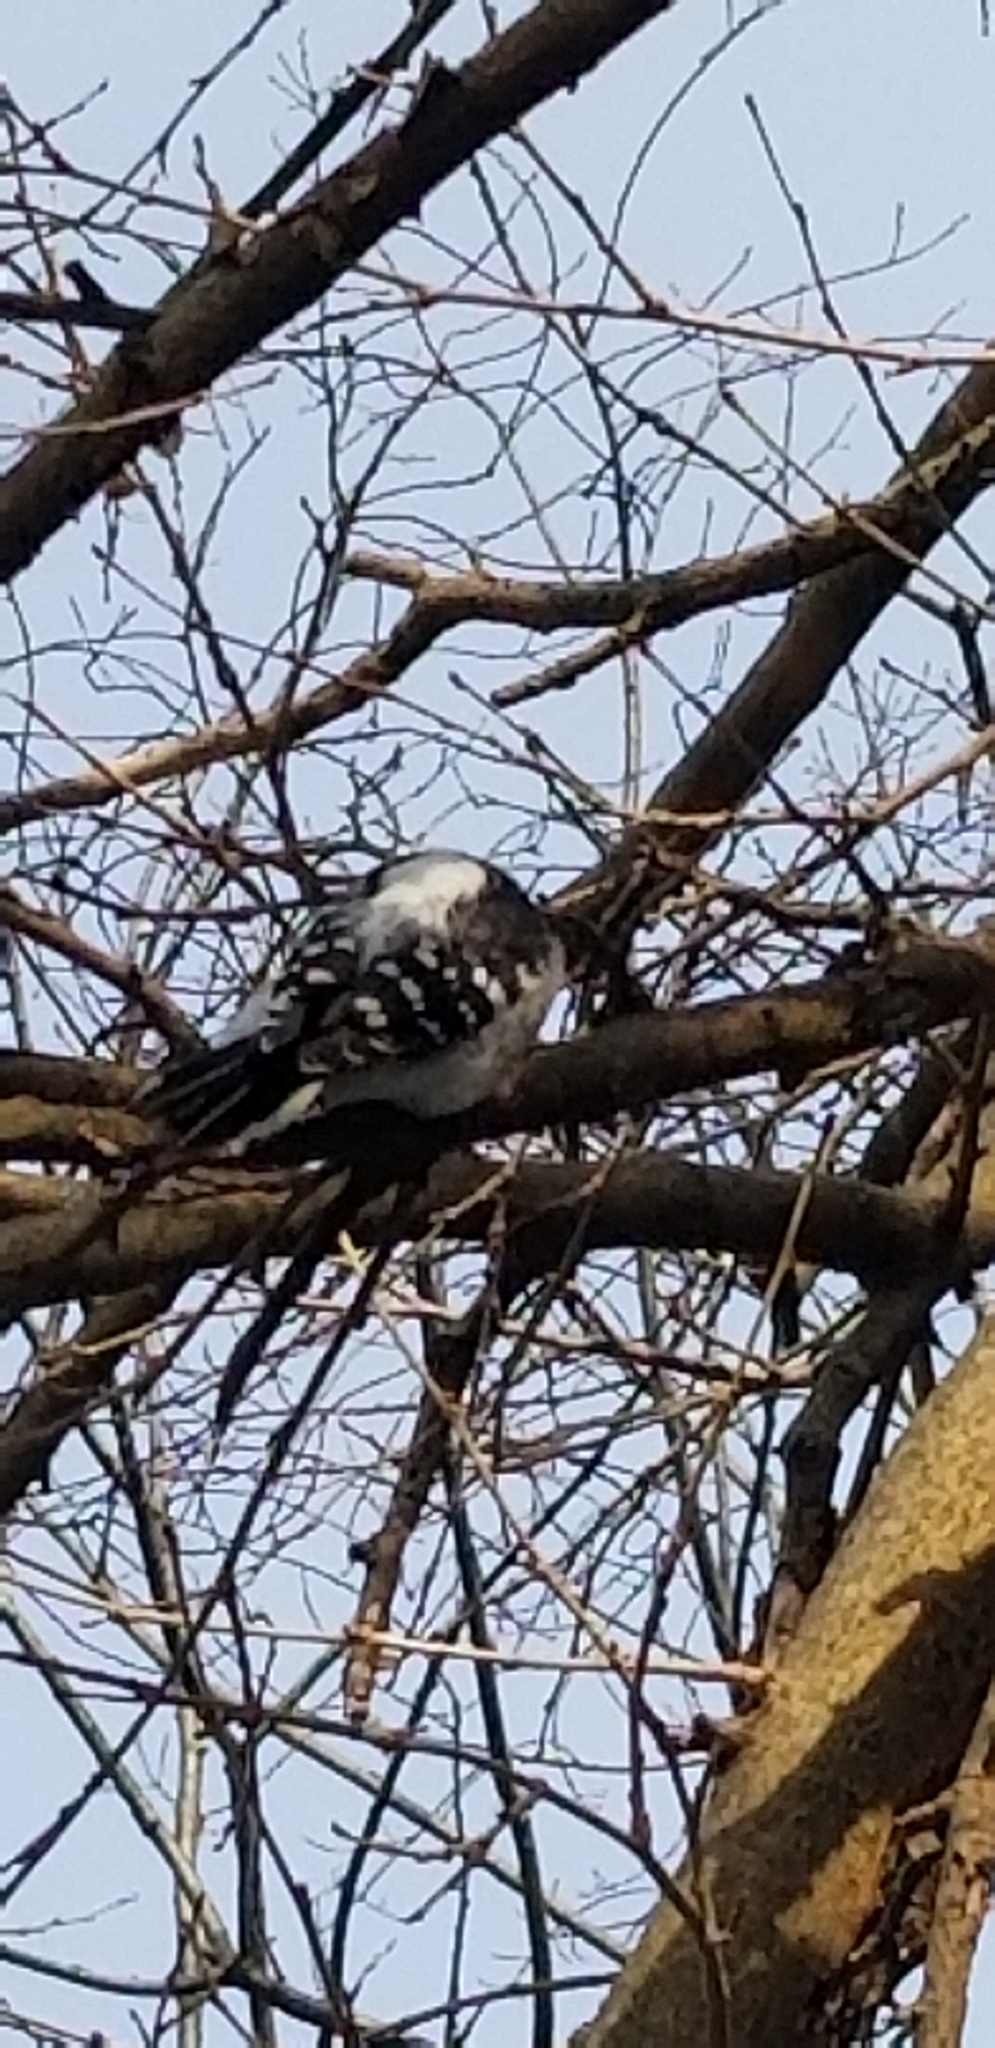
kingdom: Animalia
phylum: Chordata
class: Aves
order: Piciformes
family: Picidae
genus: Dryobates
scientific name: Dryobates pubescens
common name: Downy woodpecker
